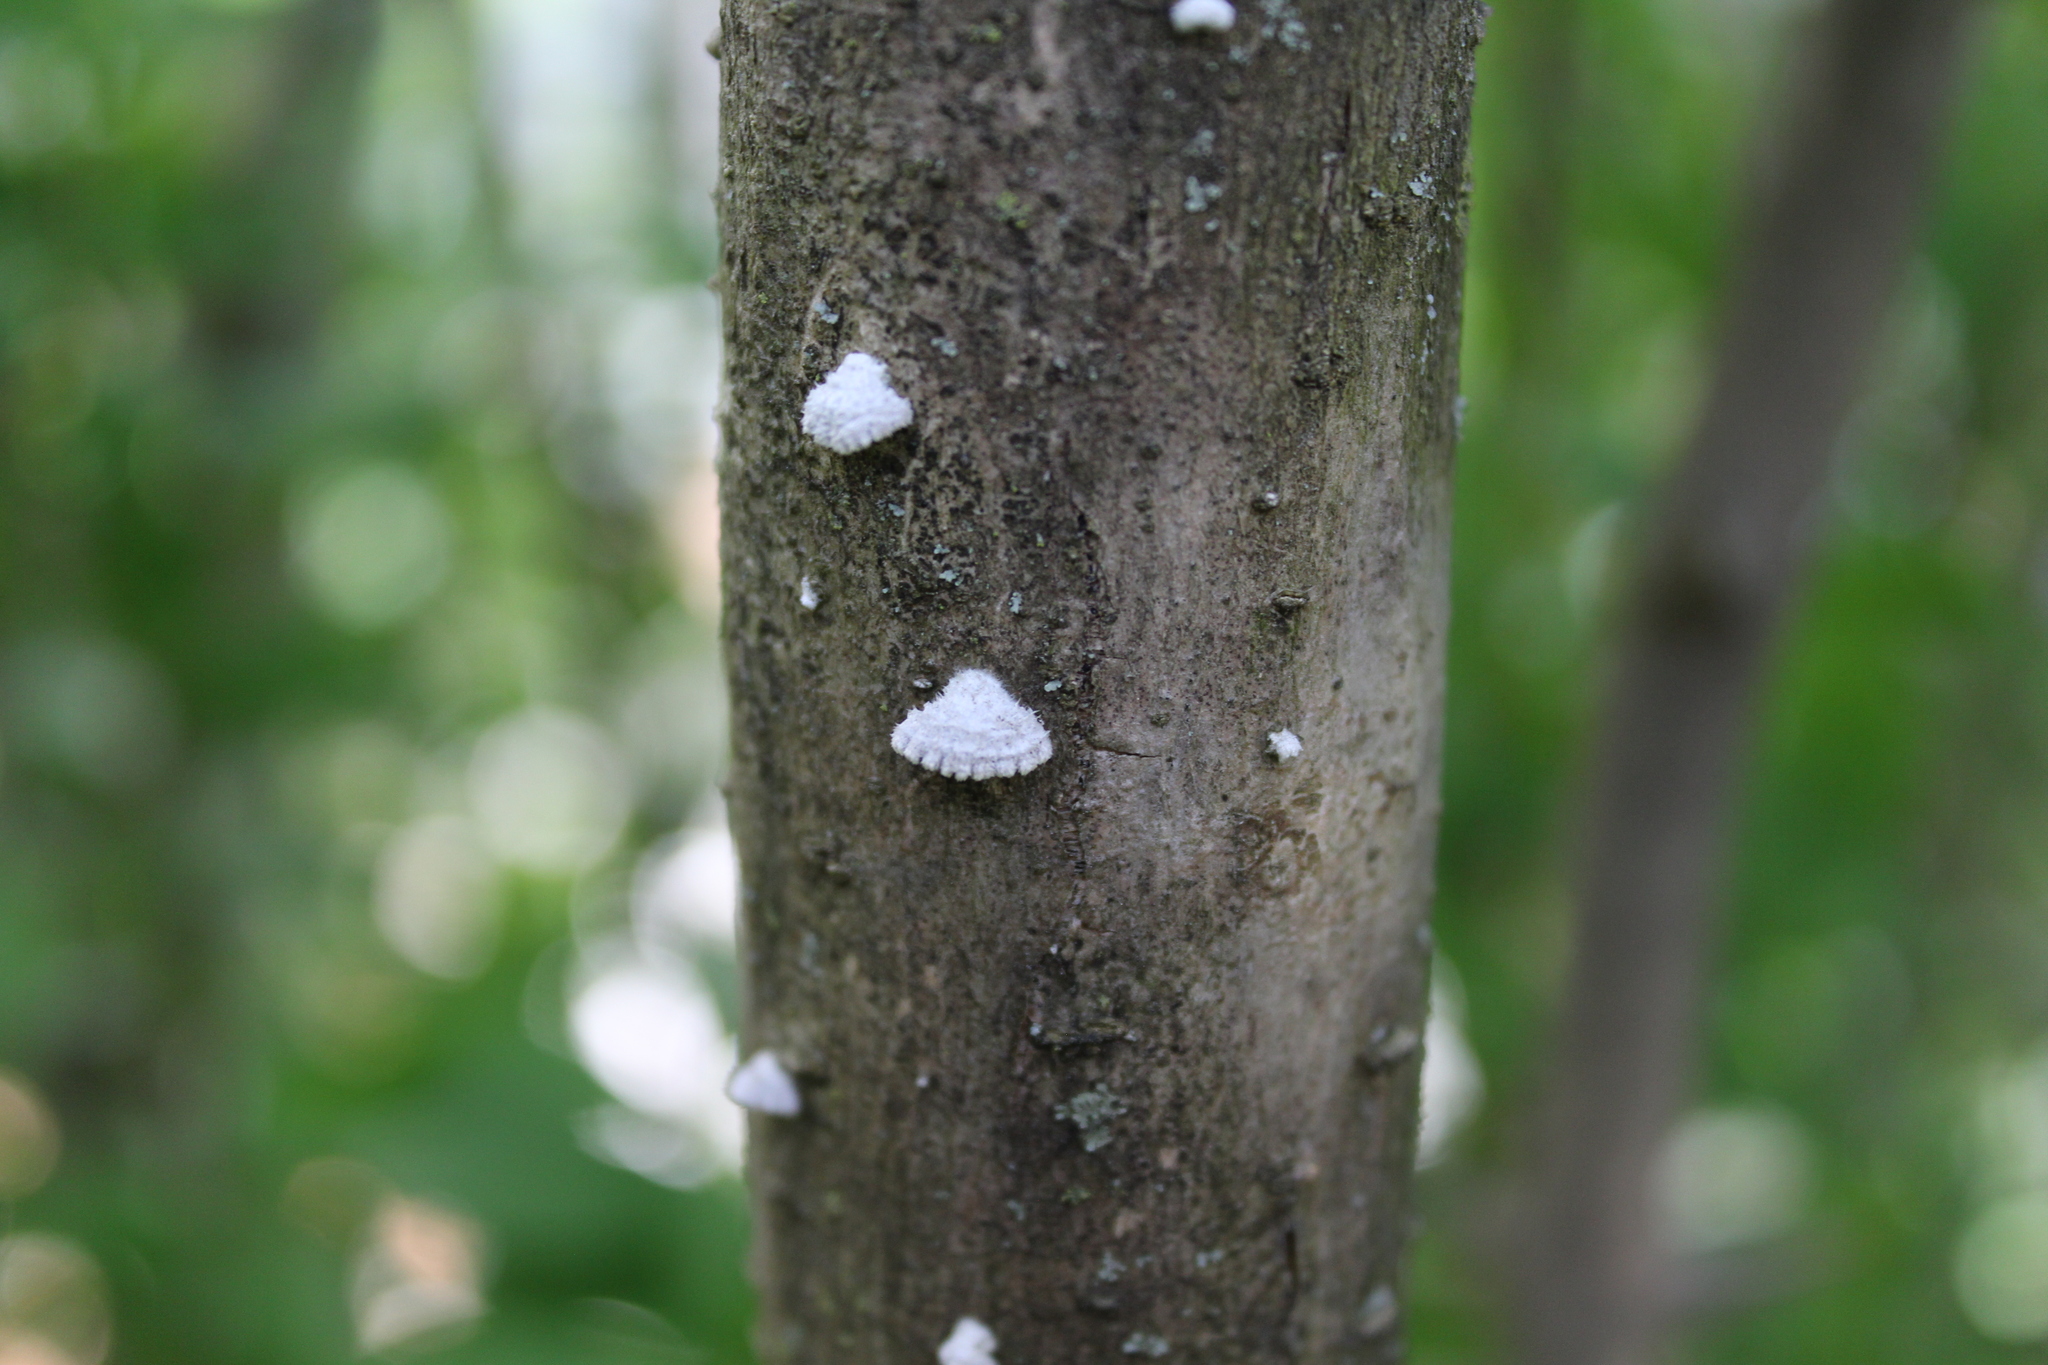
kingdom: Fungi
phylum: Basidiomycota
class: Agaricomycetes
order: Agaricales
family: Schizophyllaceae
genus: Schizophyllum
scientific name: Schizophyllum commune
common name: Common porecrust
